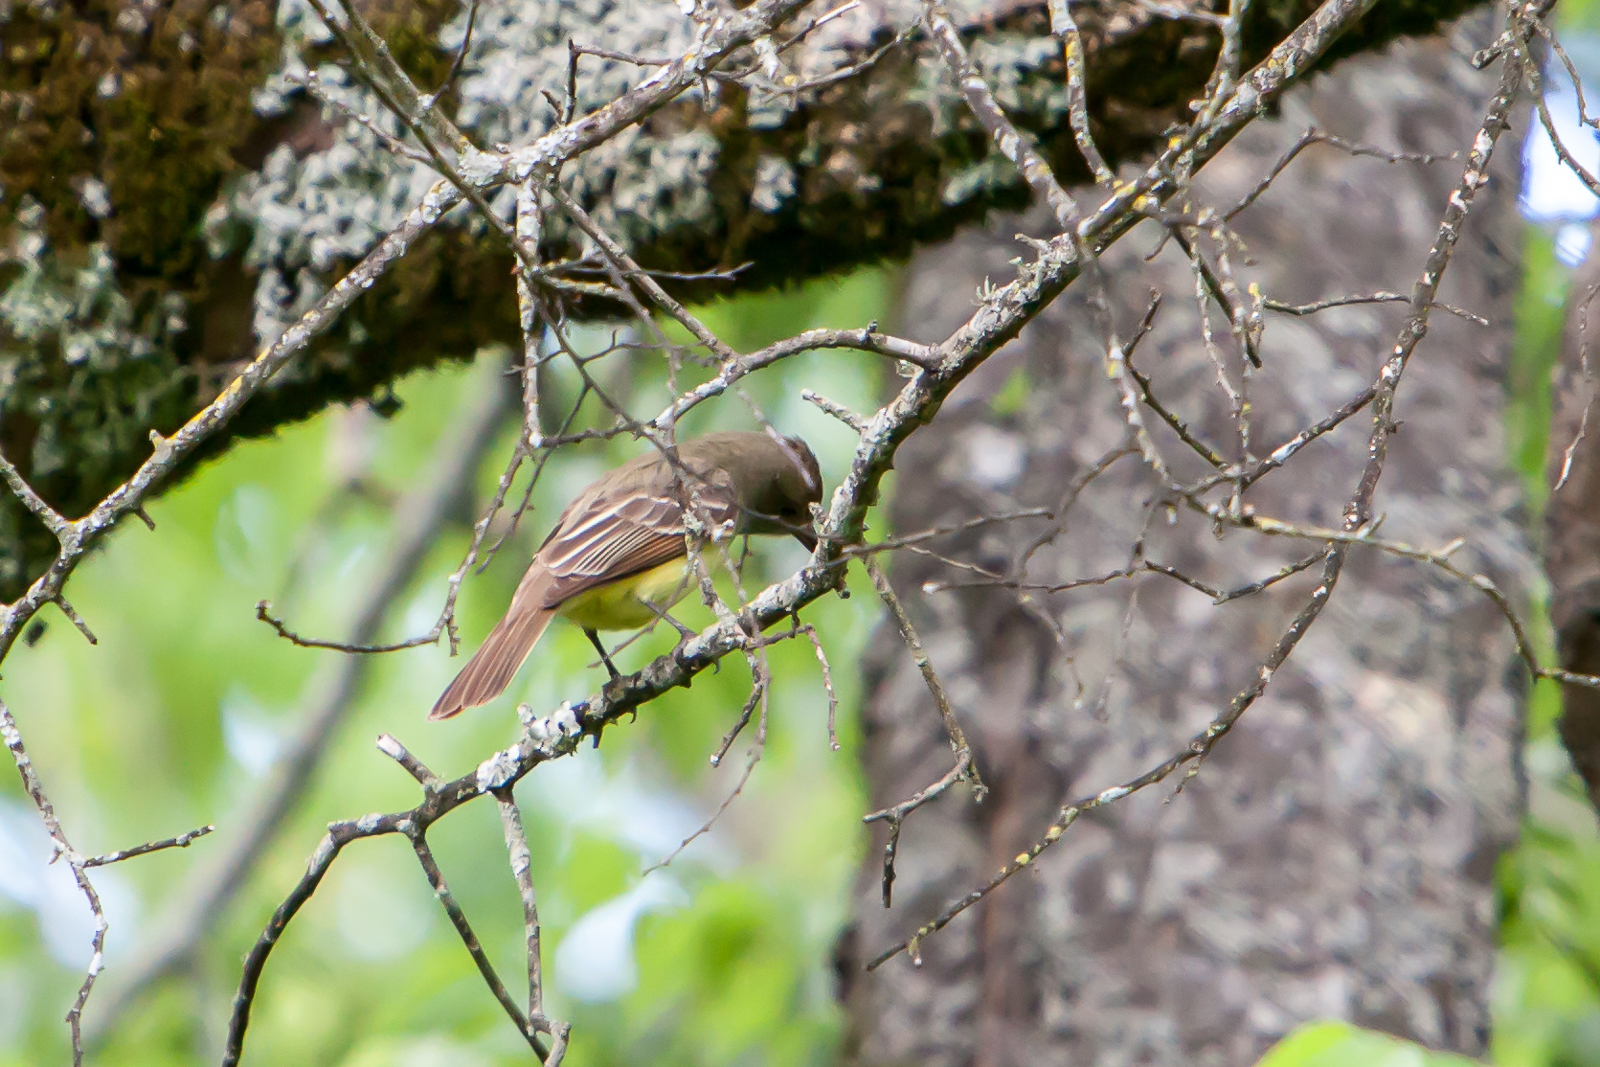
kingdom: Animalia
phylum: Chordata
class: Aves
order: Passeriformes
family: Tyrannidae
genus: Myiarchus
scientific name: Myiarchus crinitus
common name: Great crested flycatcher
